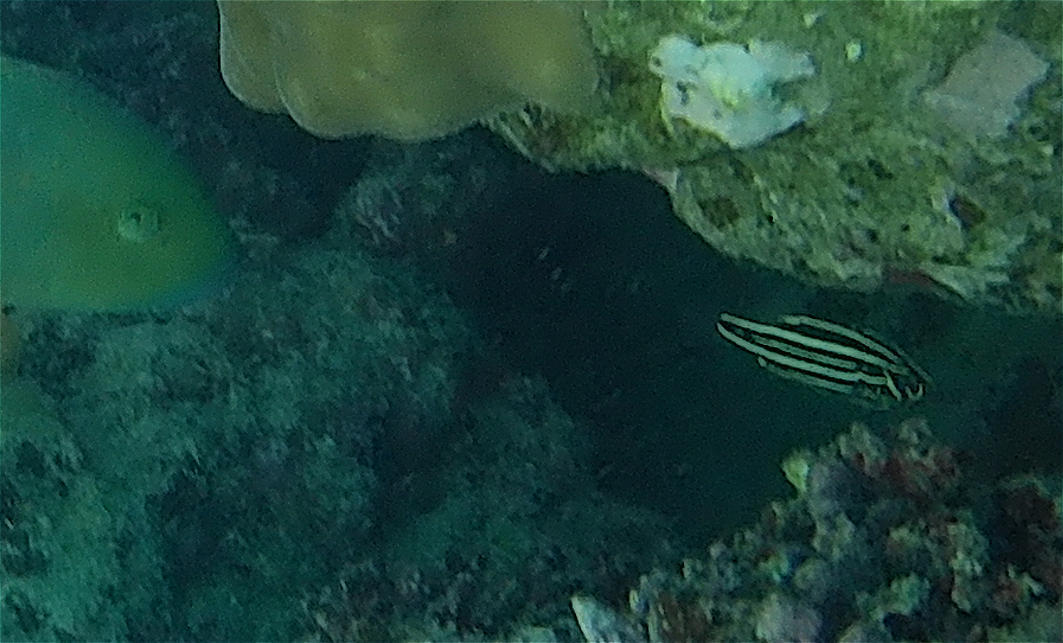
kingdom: Animalia
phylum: Chordata
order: Perciformes
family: Serranidae
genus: Grammistes
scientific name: Grammistes sexlineatus
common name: Sixline soapfish
